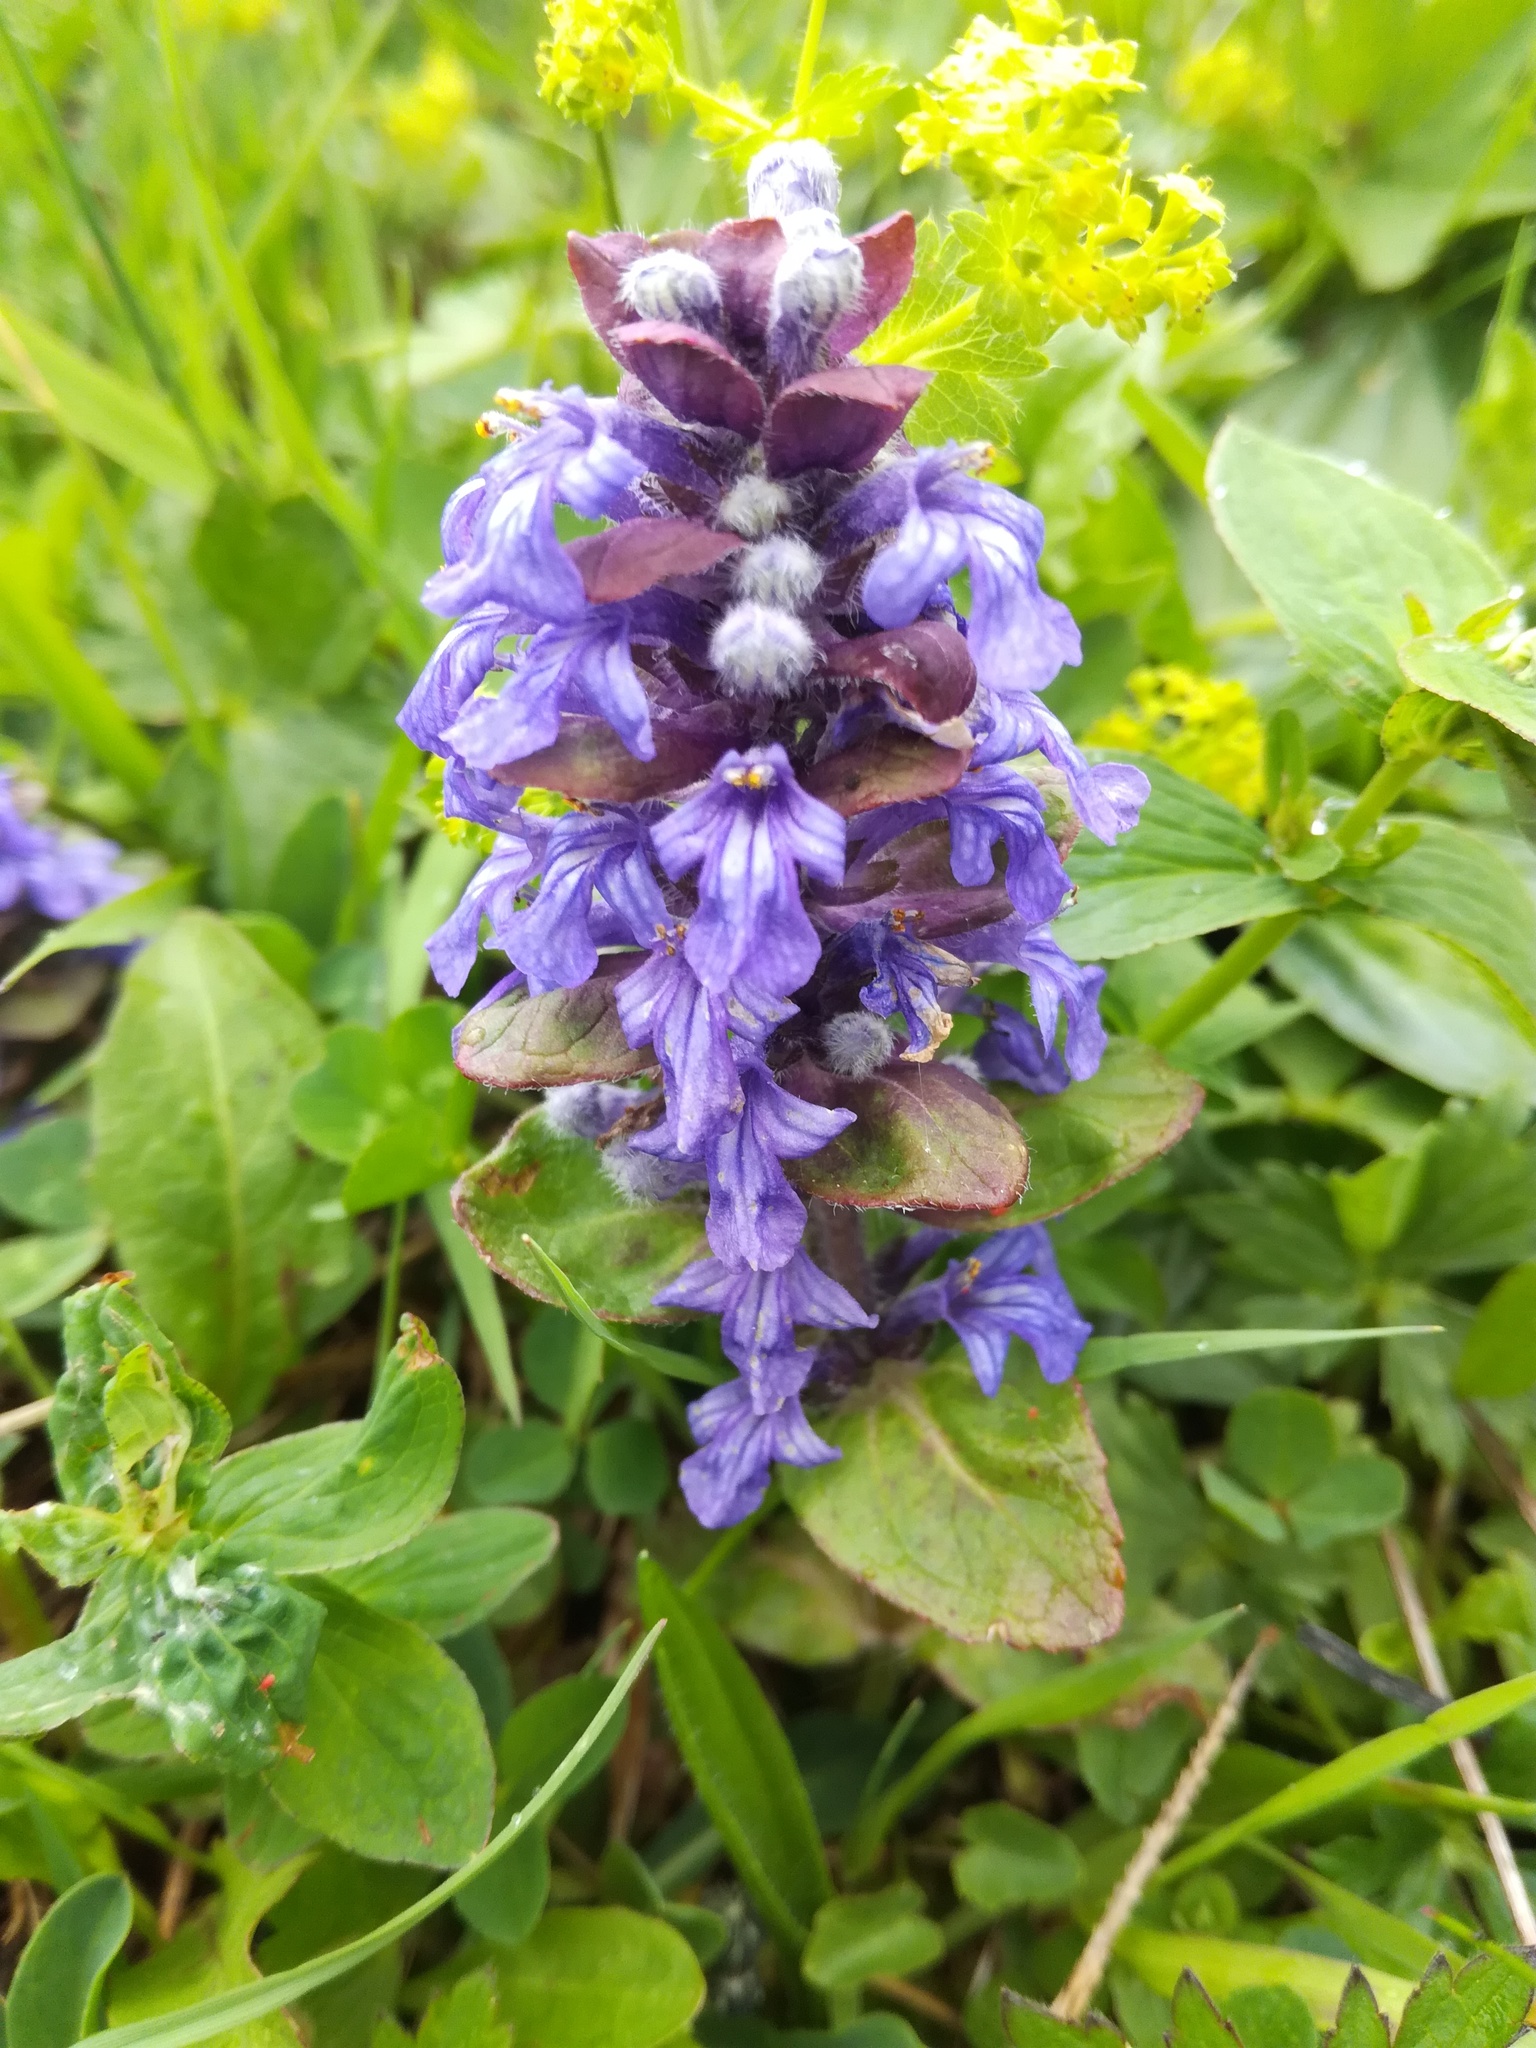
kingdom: Plantae
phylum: Tracheophyta
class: Magnoliopsida
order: Lamiales
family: Lamiaceae
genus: Ajuga
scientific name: Ajuga reptans
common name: Bugle
